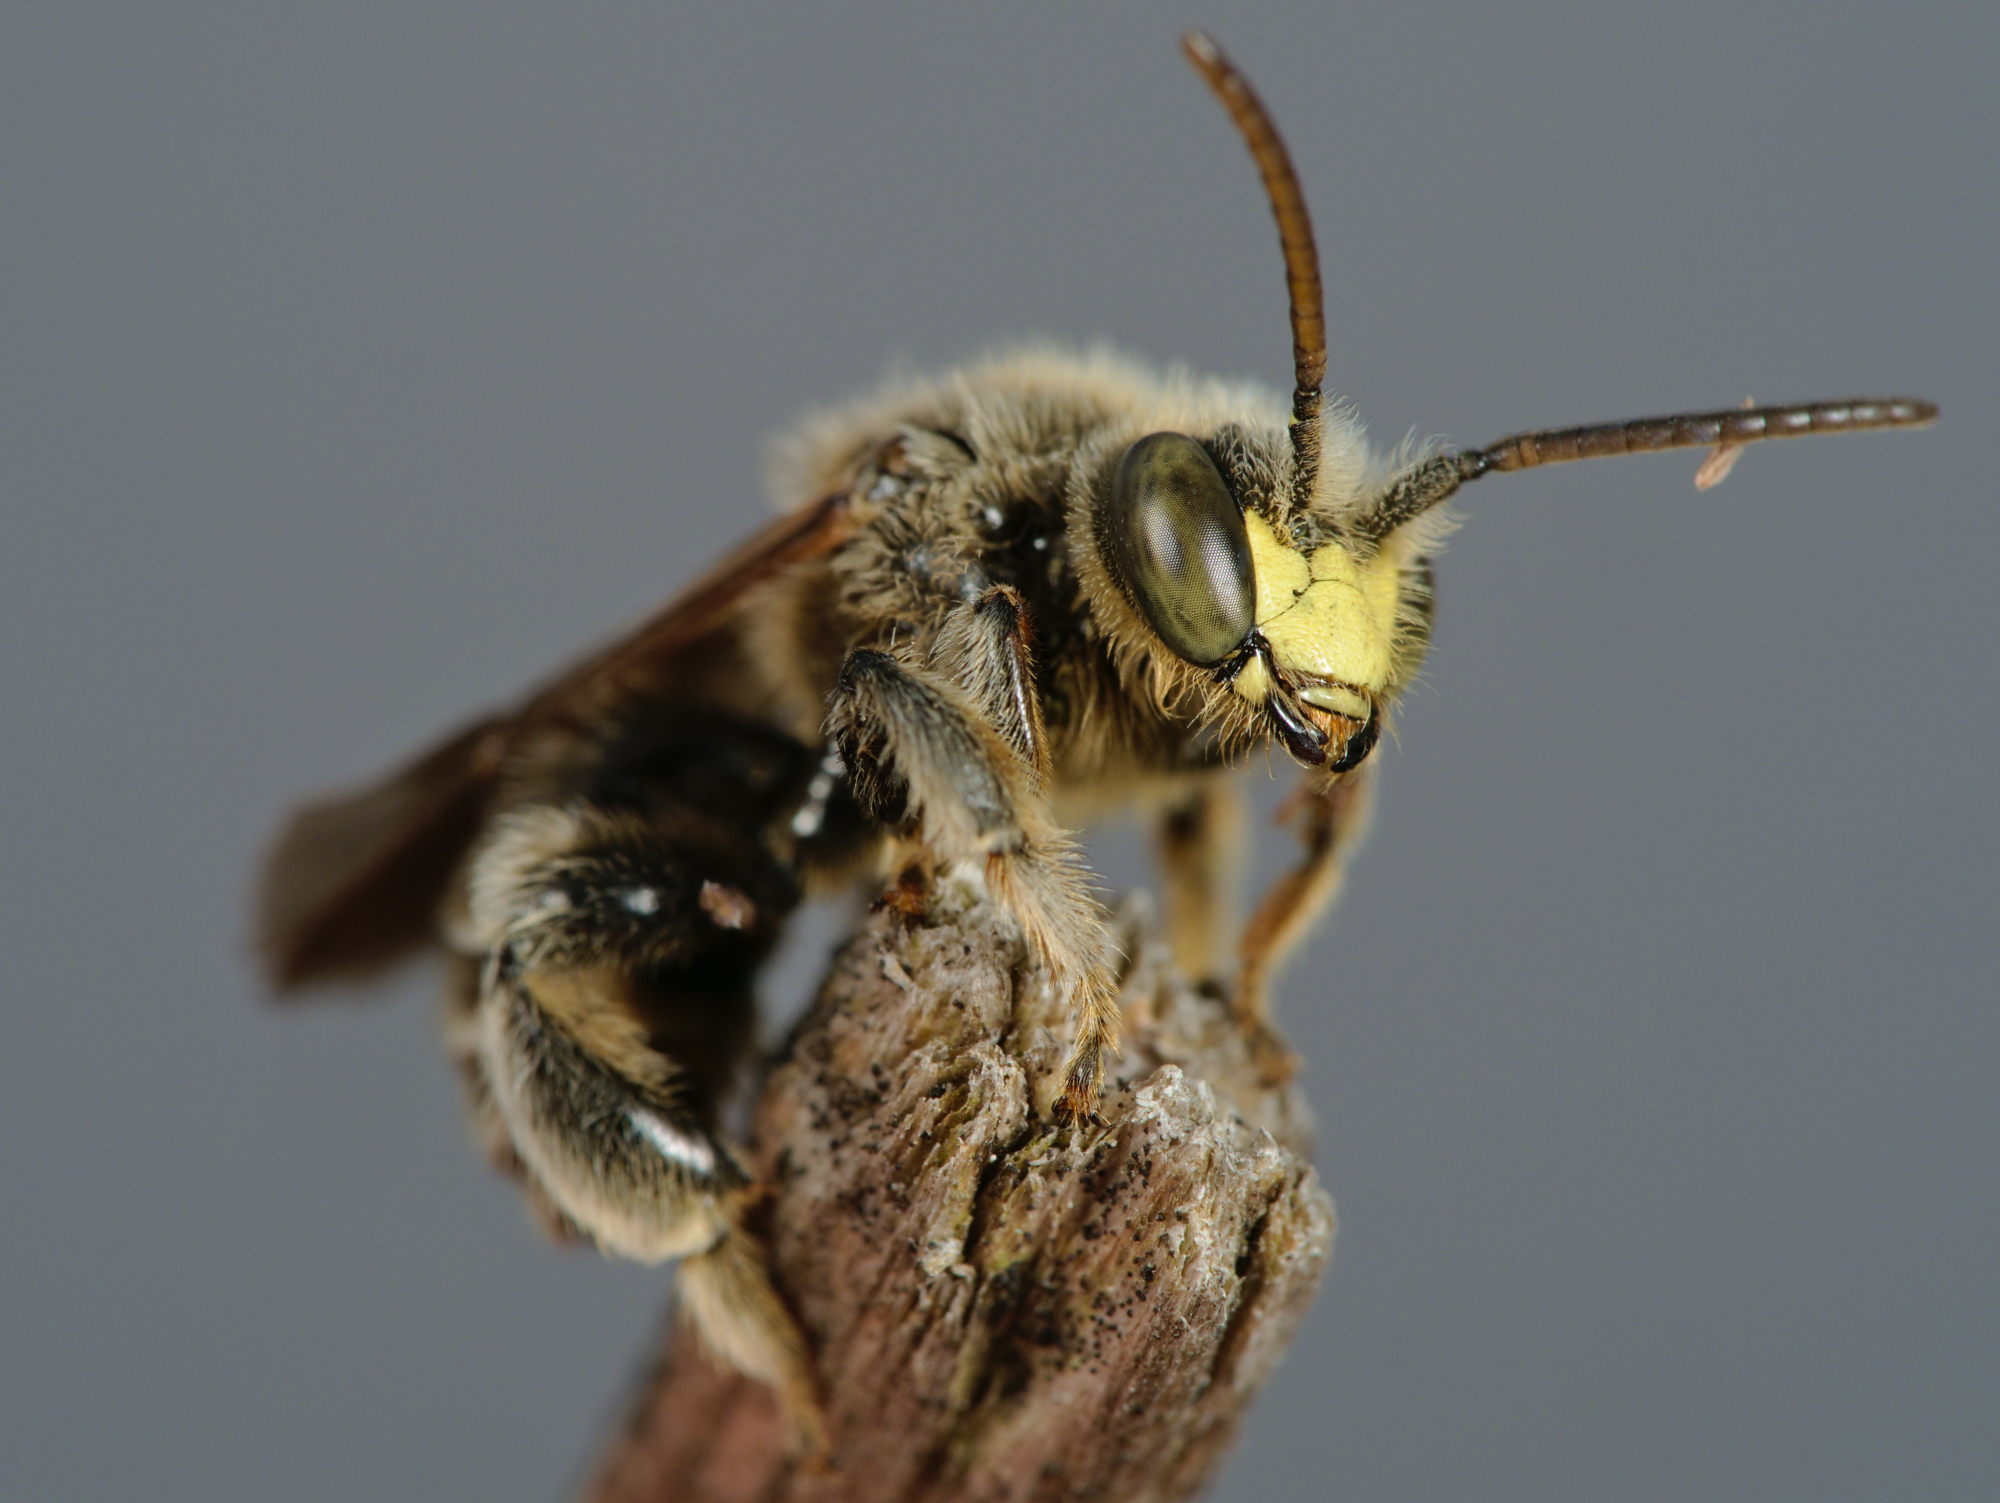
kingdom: Animalia
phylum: Arthropoda
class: Insecta
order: Hymenoptera
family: Melittidae
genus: Macropis
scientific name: Macropis fulvipes
